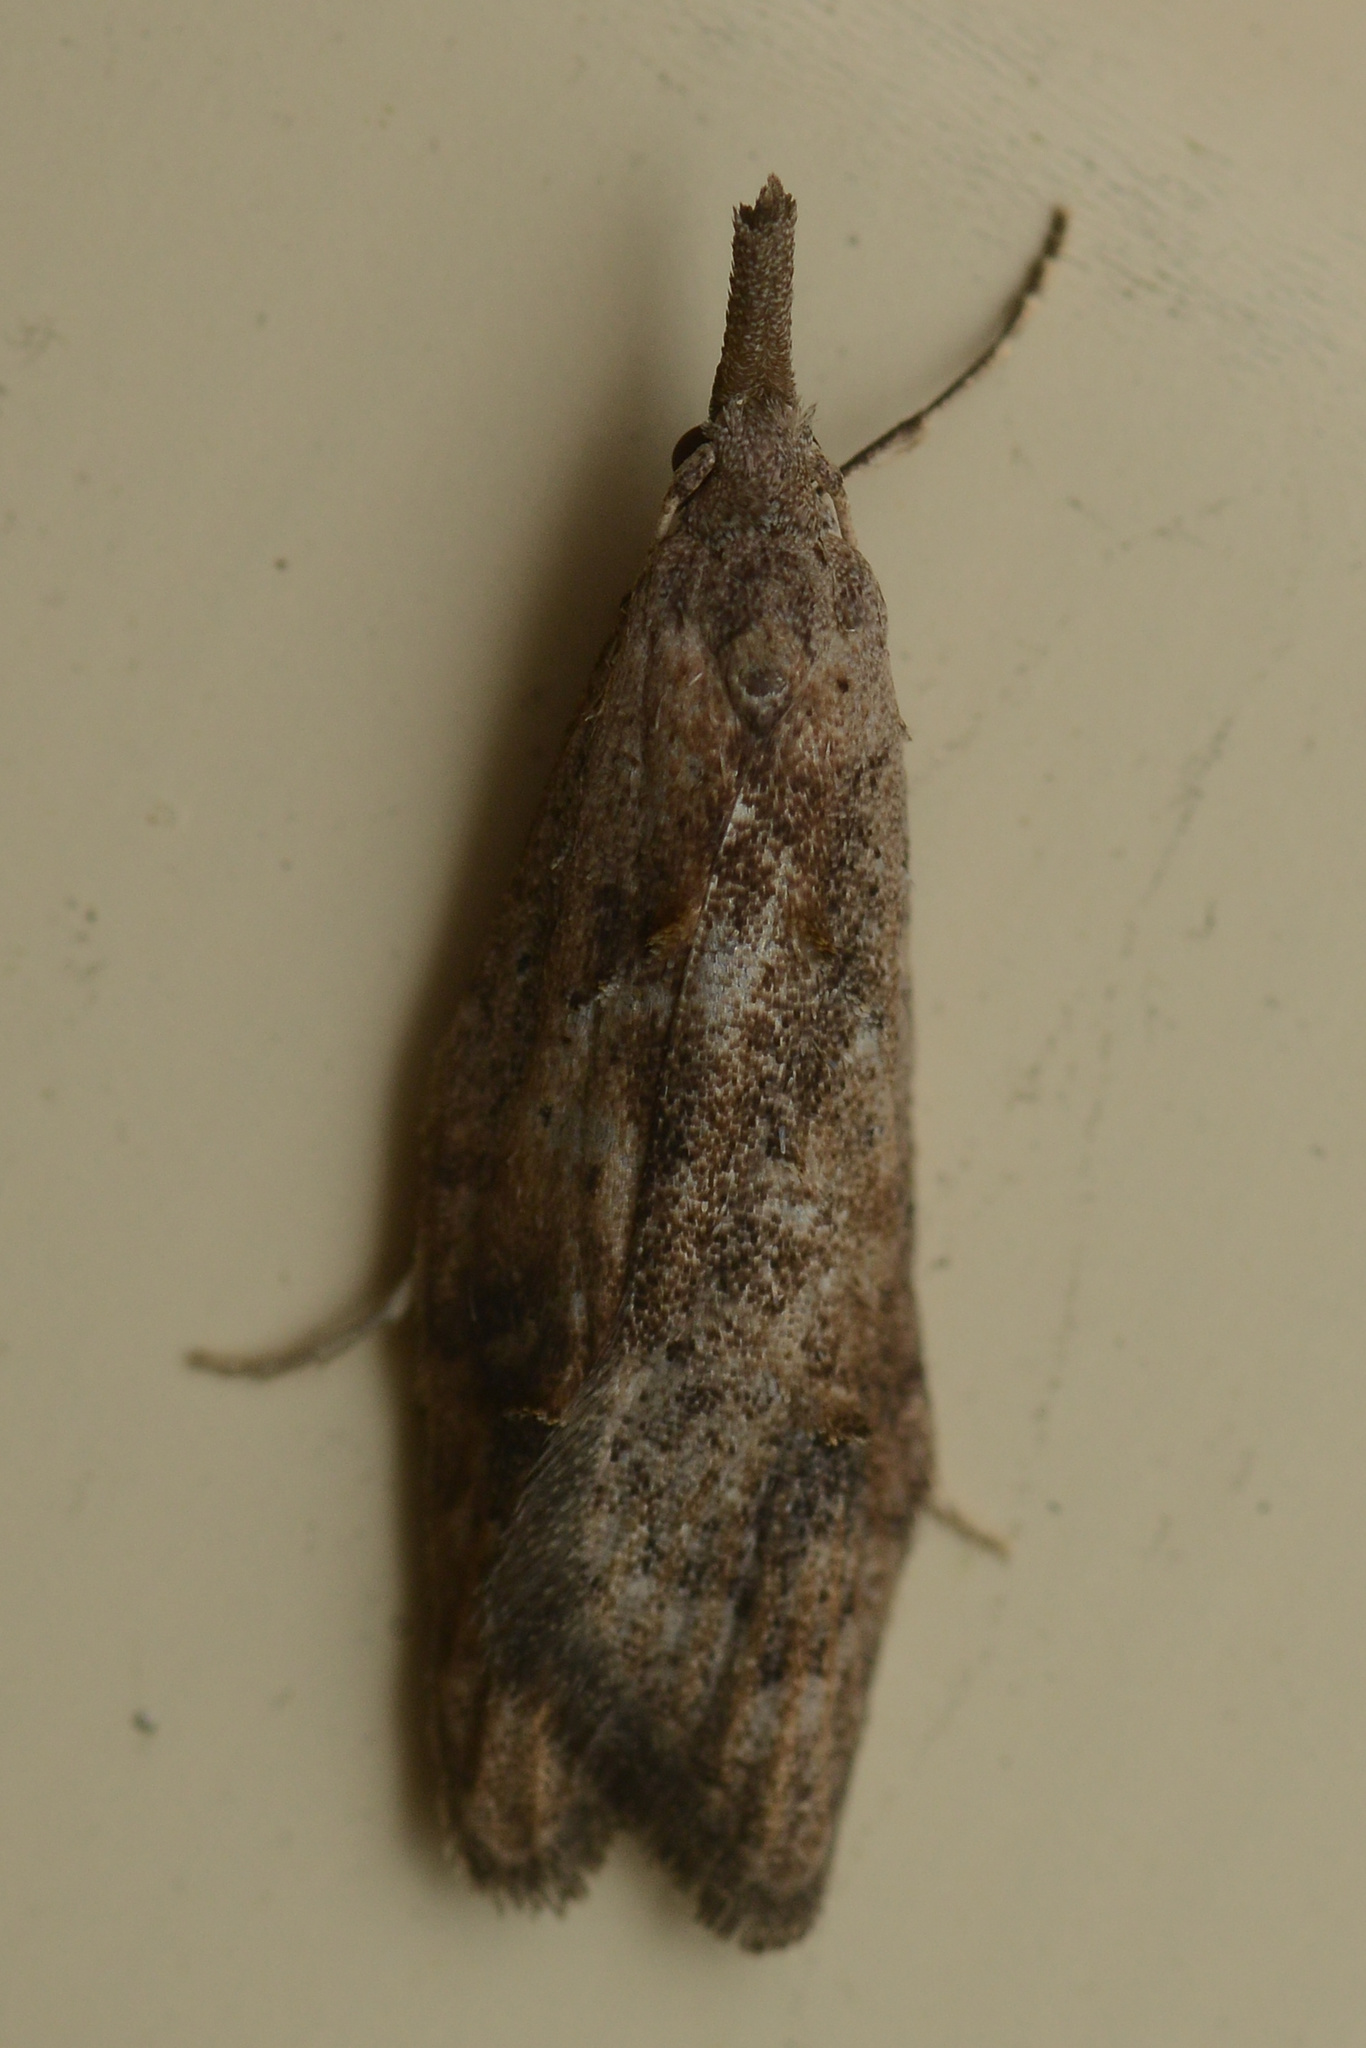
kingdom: Animalia
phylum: Arthropoda
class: Insecta
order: Lepidoptera
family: Carposinidae
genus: Carposina
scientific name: Carposina rubophaga
